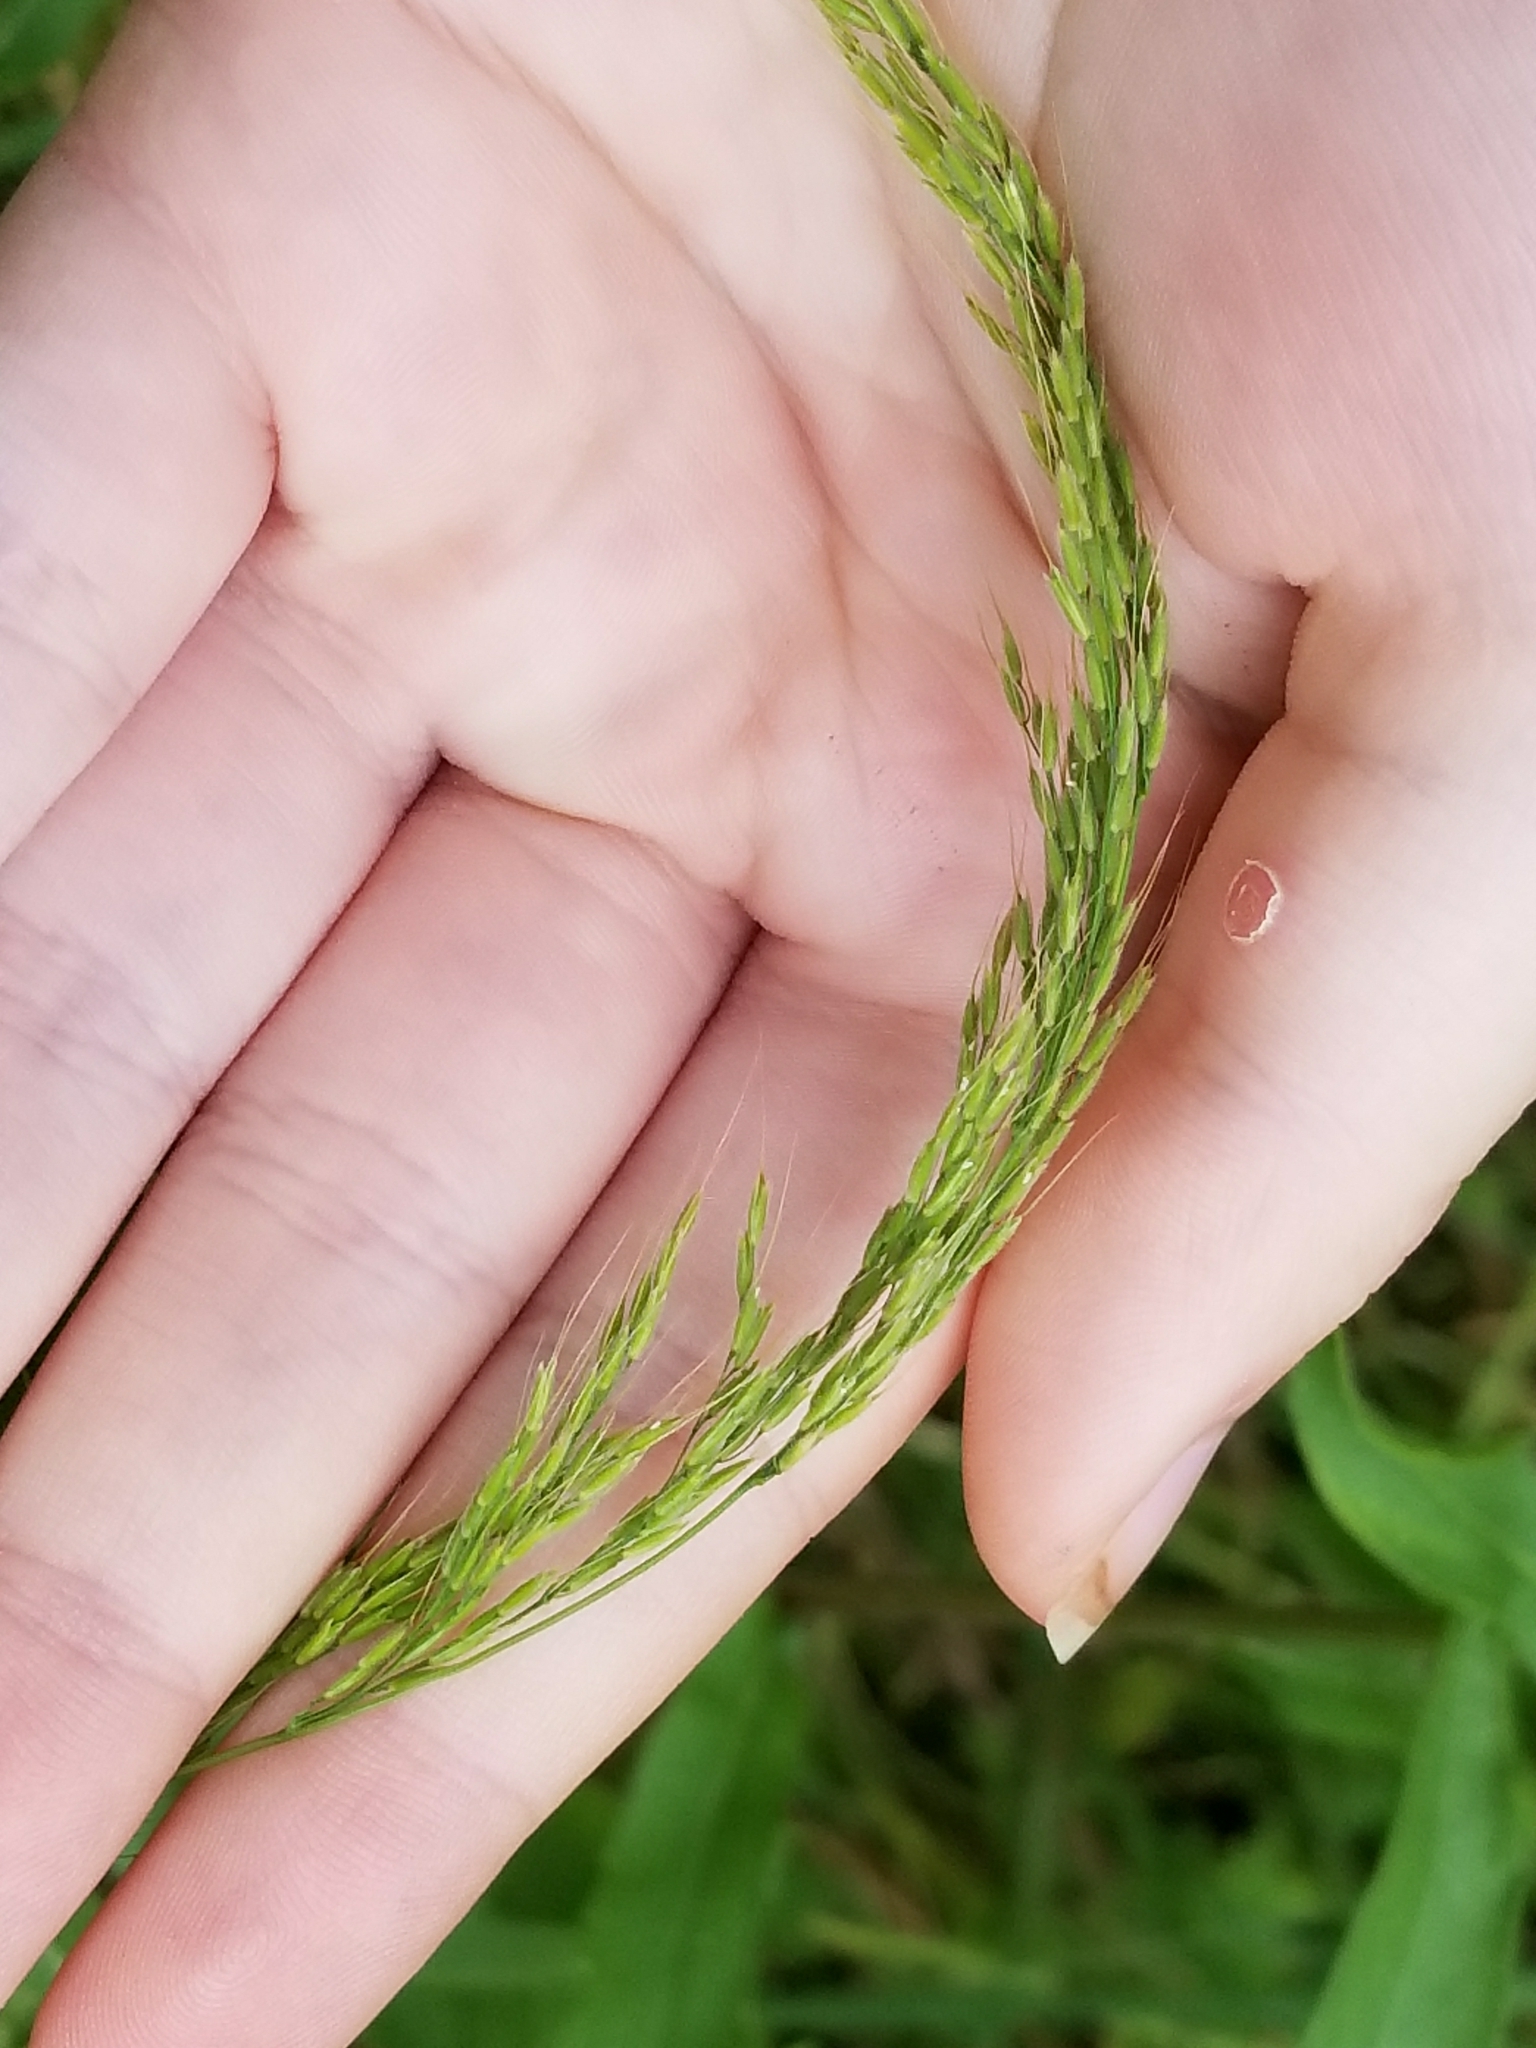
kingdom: Plantae
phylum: Tracheophyta
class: Liliopsida
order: Poales
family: Poaceae
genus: Limnodea
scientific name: Limnodea arkansana
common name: Ozark-grass
